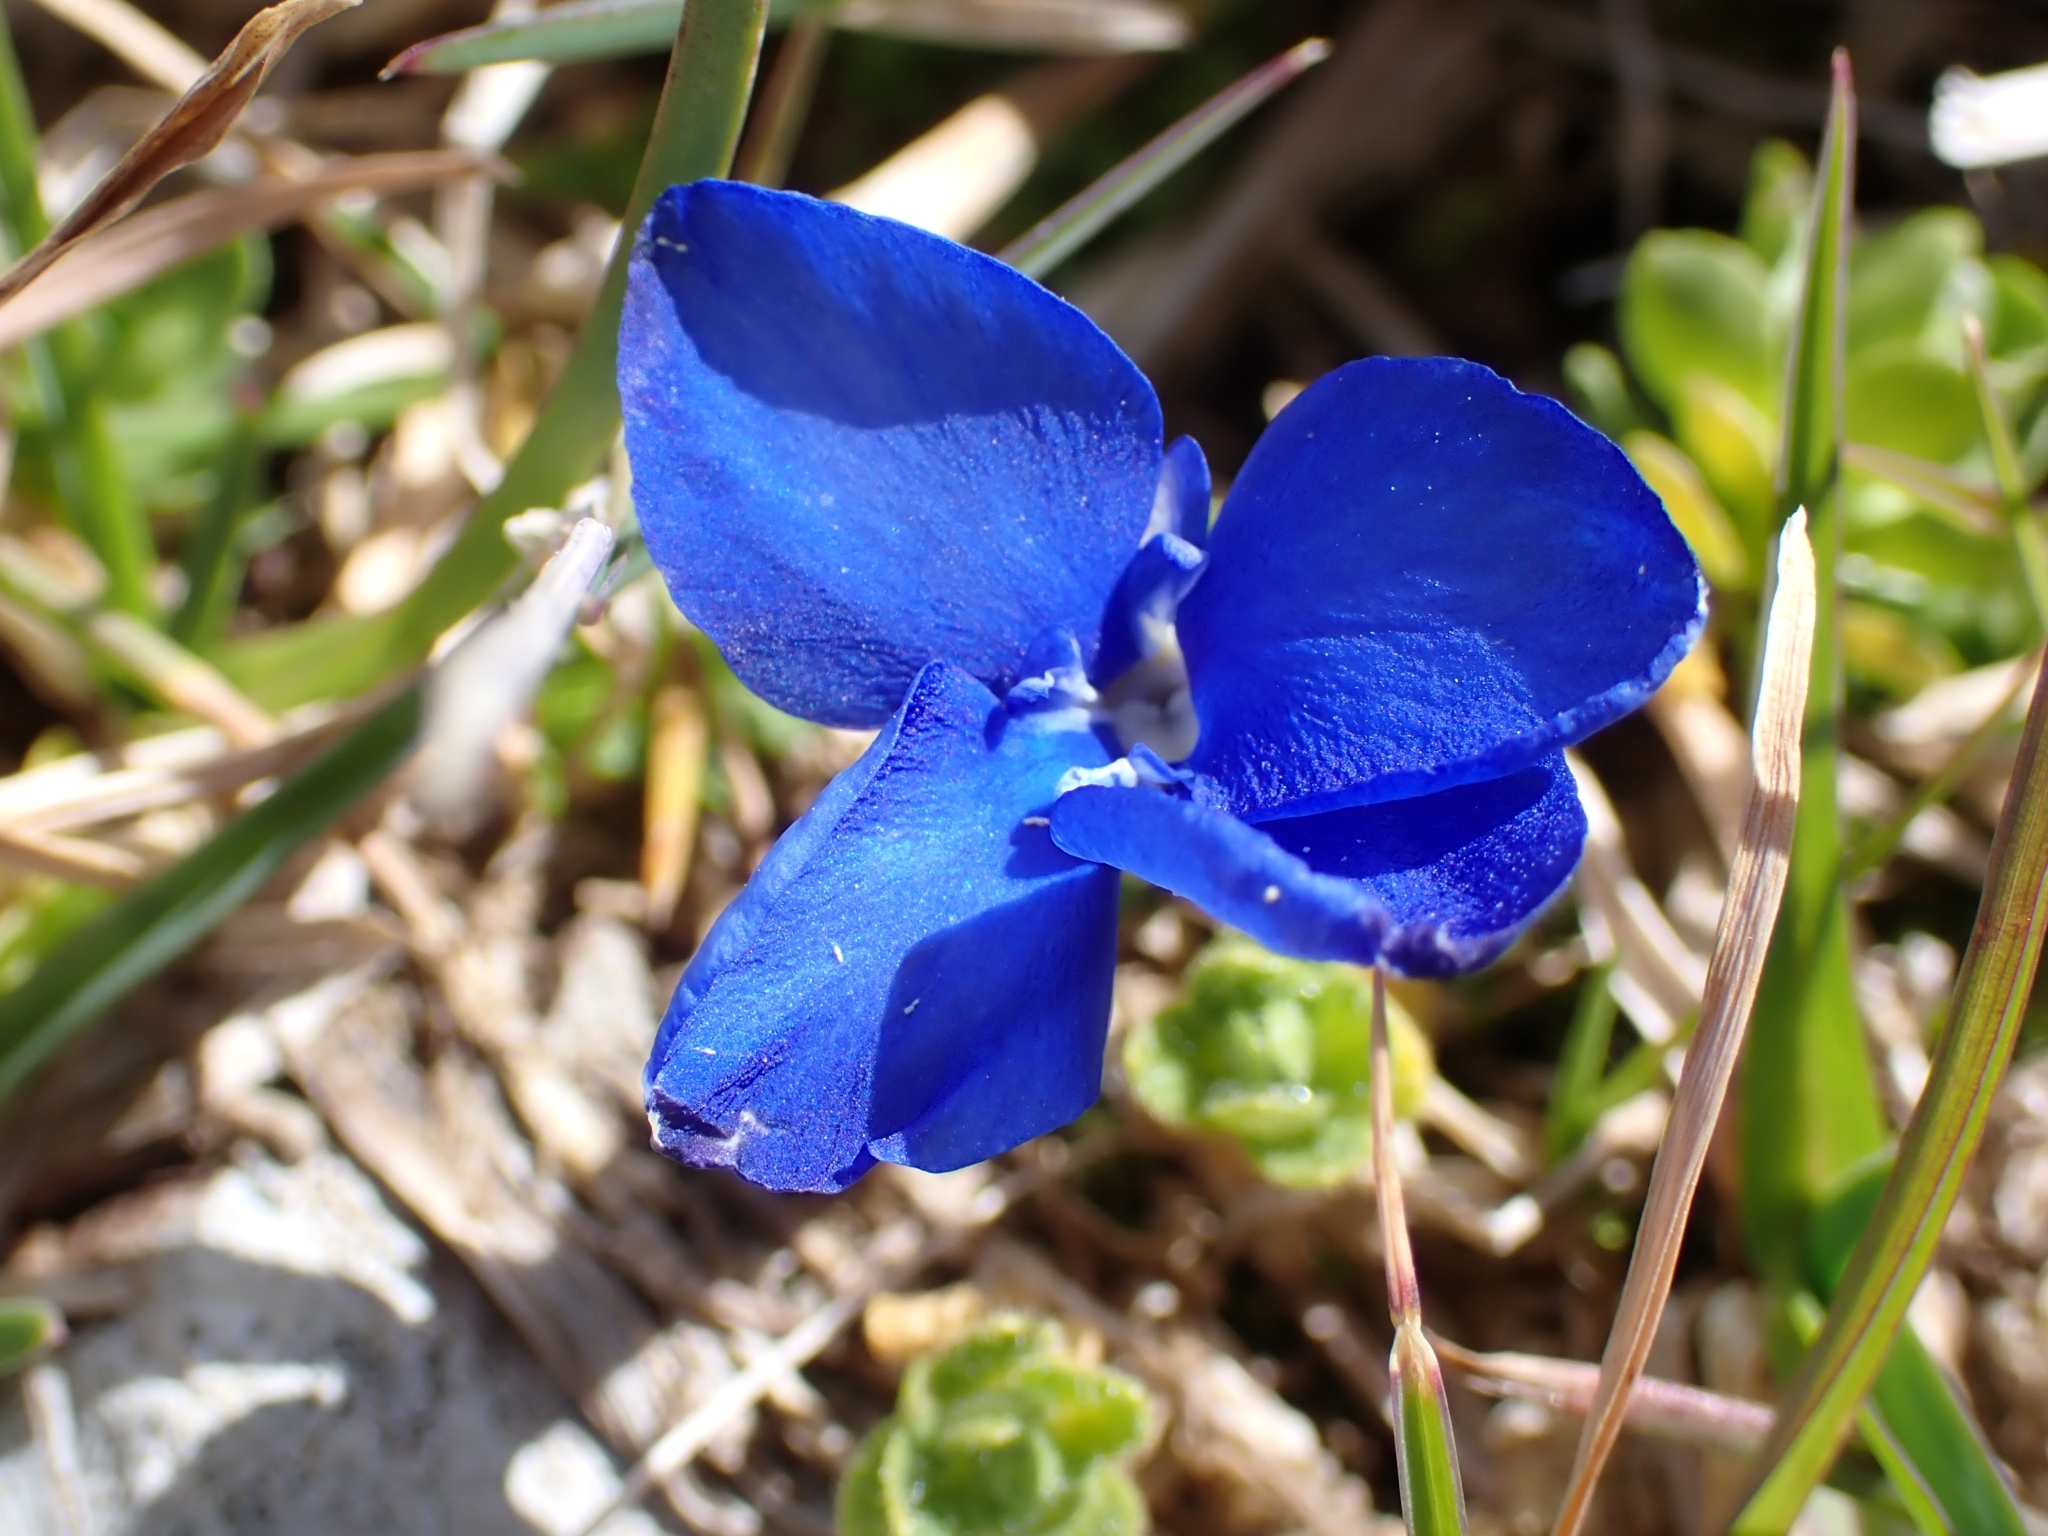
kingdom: Plantae
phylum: Tracheophyta
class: Magnoliopsida
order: Gentianales
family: Gentianaceae
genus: Gentiana
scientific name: Gentiana bavarica
